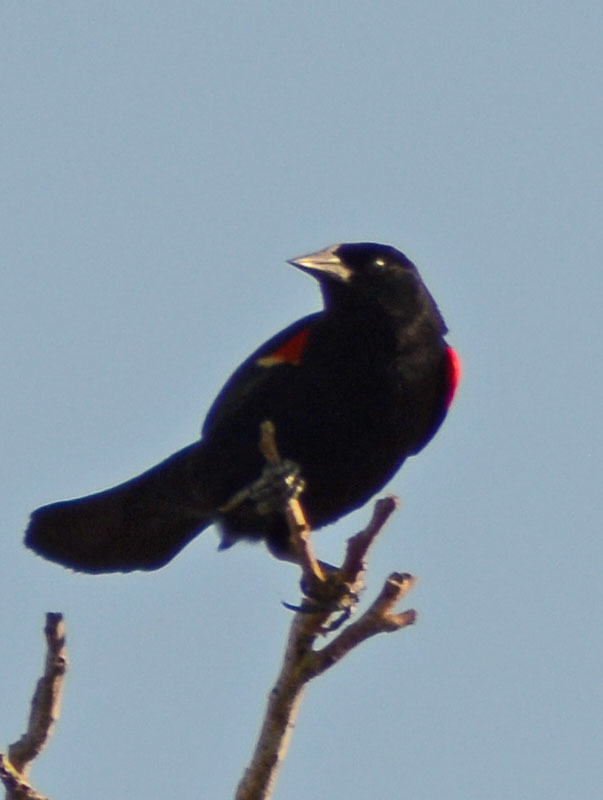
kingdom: Animalia
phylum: Chordata
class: Aves
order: Passeriformes
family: Icteridae
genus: Agelaius
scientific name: Agelaius phoeniceus
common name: Red-winged blackbird
